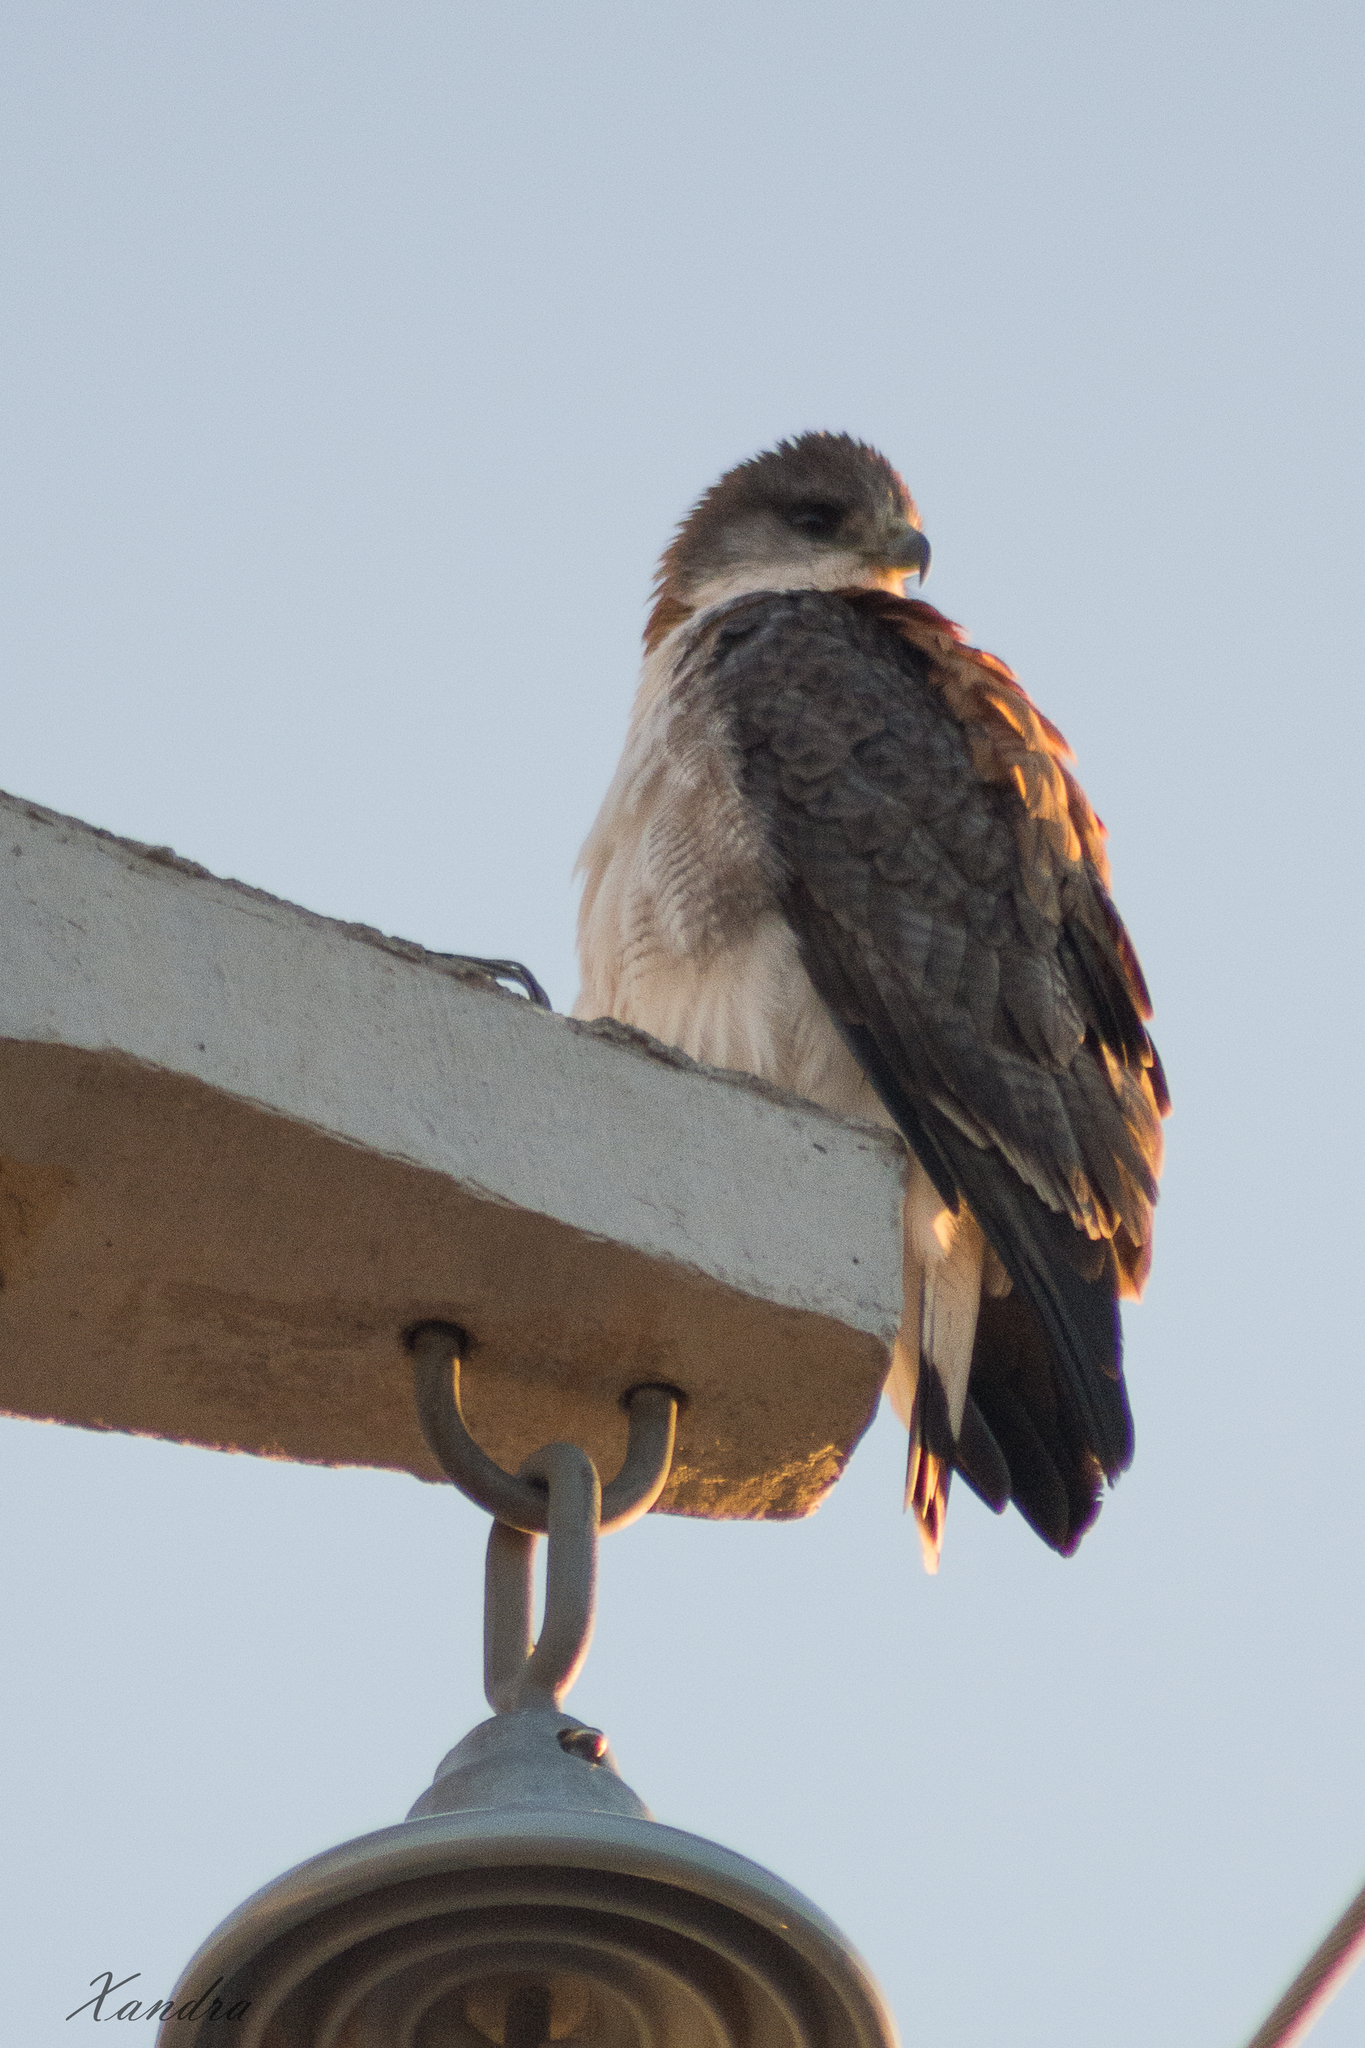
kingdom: Animalia
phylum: Chordata
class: Aves
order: Accipitriformes
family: Accipitridae
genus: Buteo
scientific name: Buteo polyosoma
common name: Variable hawk
